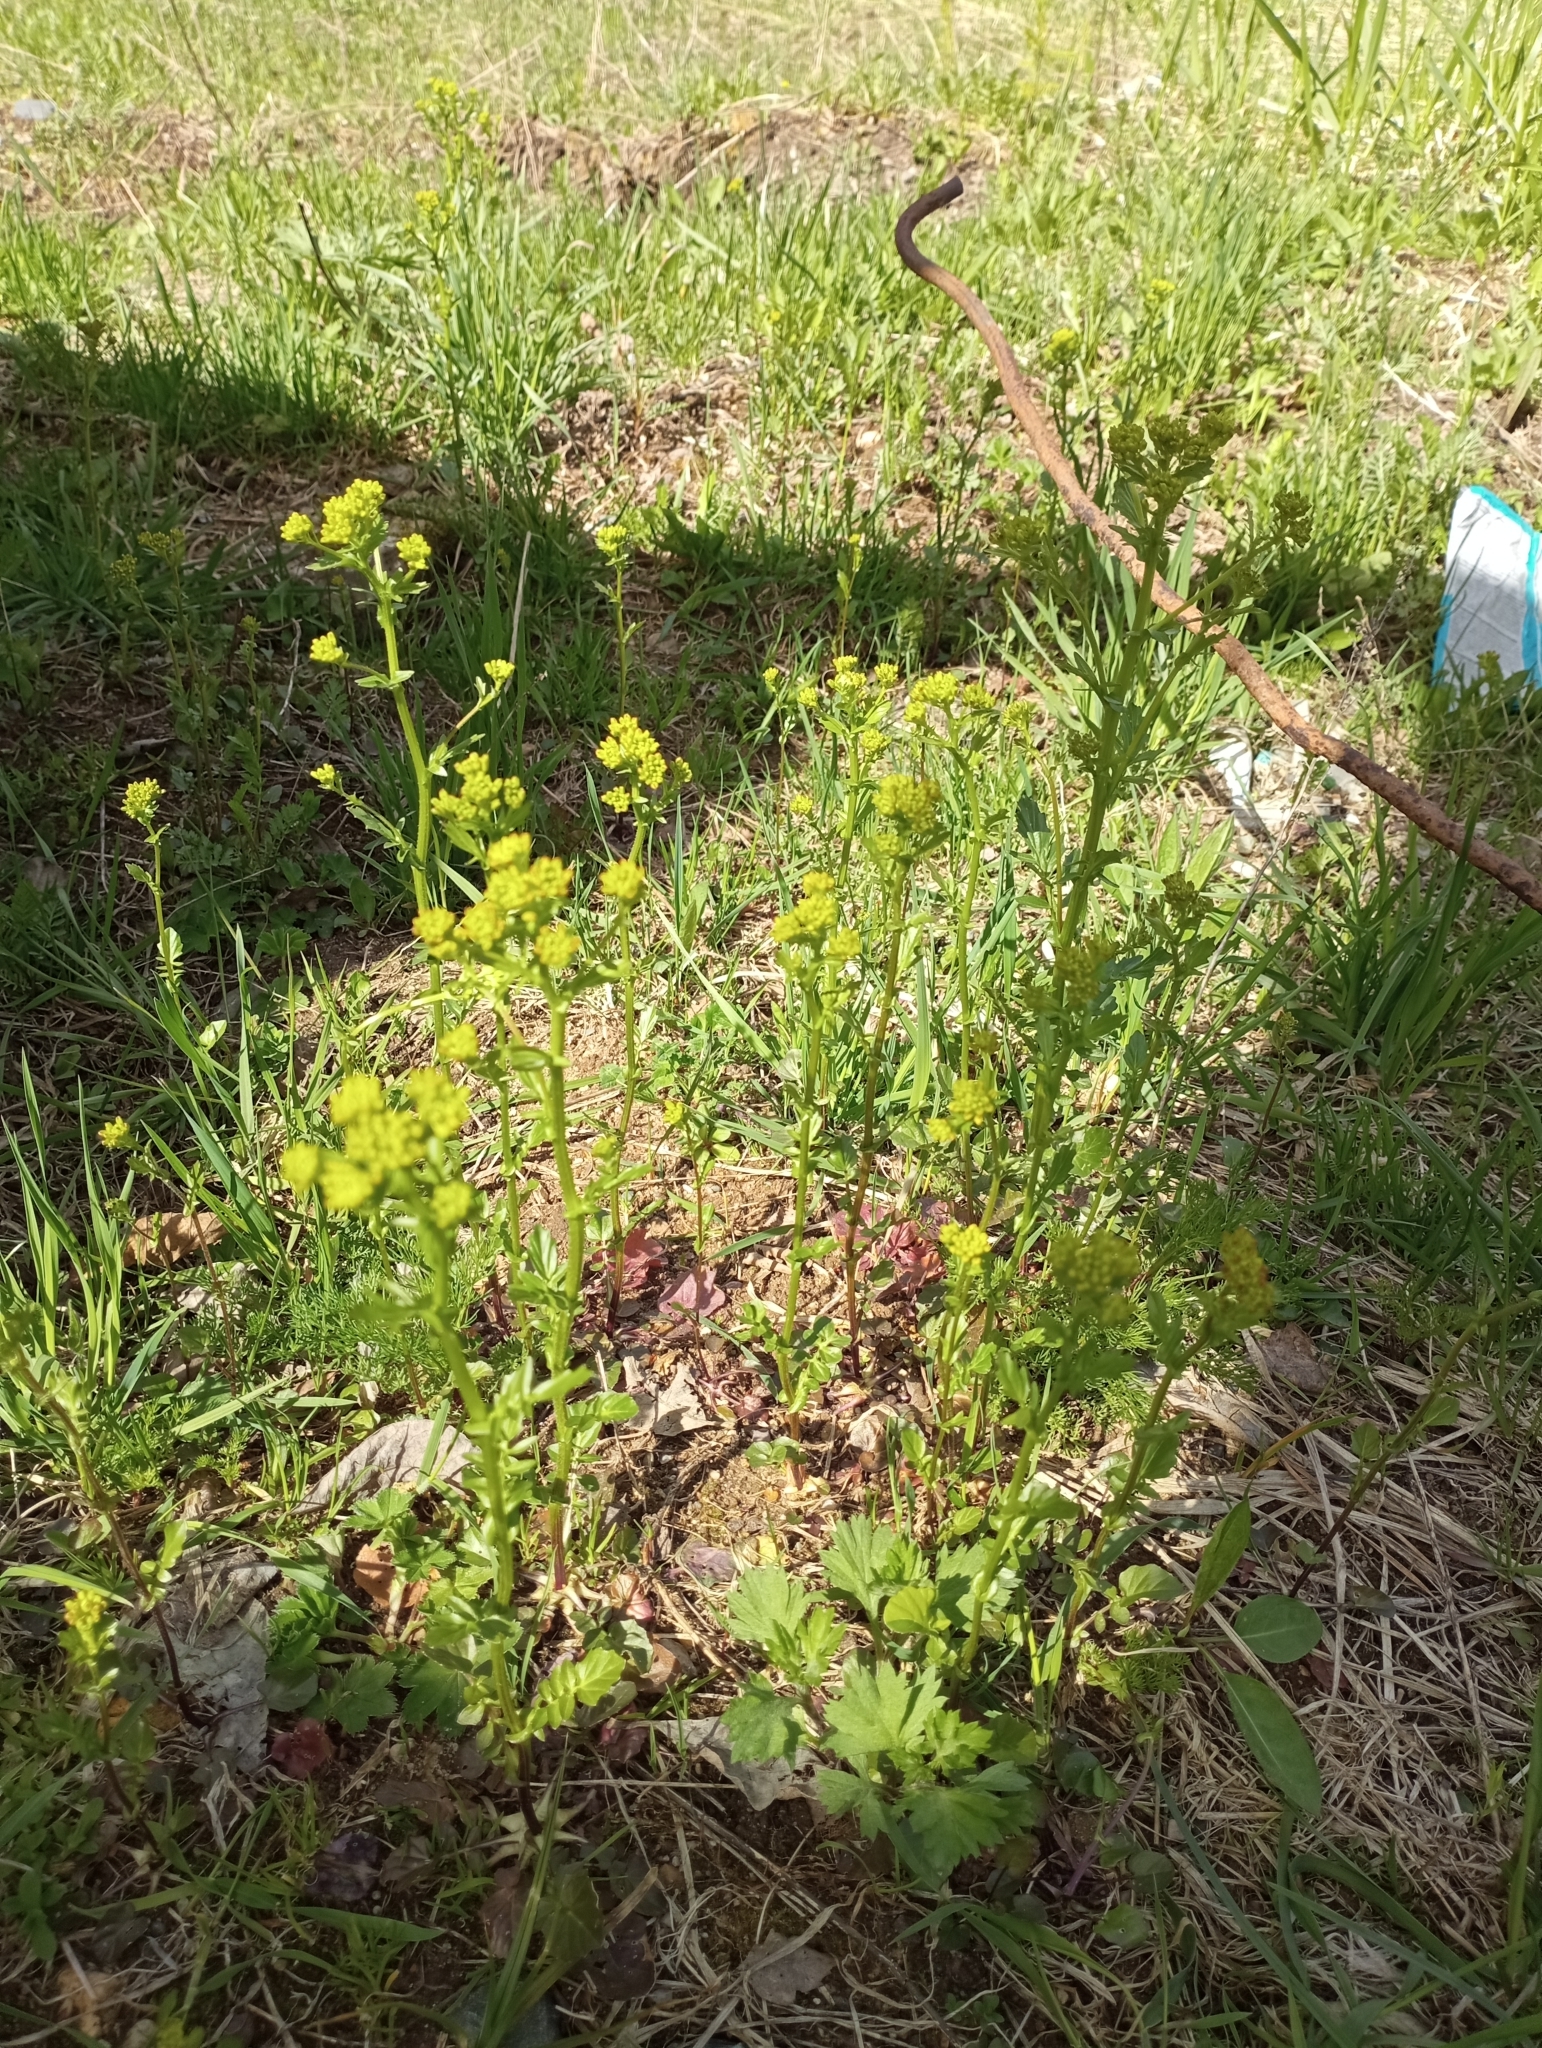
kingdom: Plantae
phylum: Tracheophyta
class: Magnoliopsida
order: Brassicales
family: Brassicaceae
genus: Barbarea
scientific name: Barbarea vulgaris
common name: Cressy-greens
